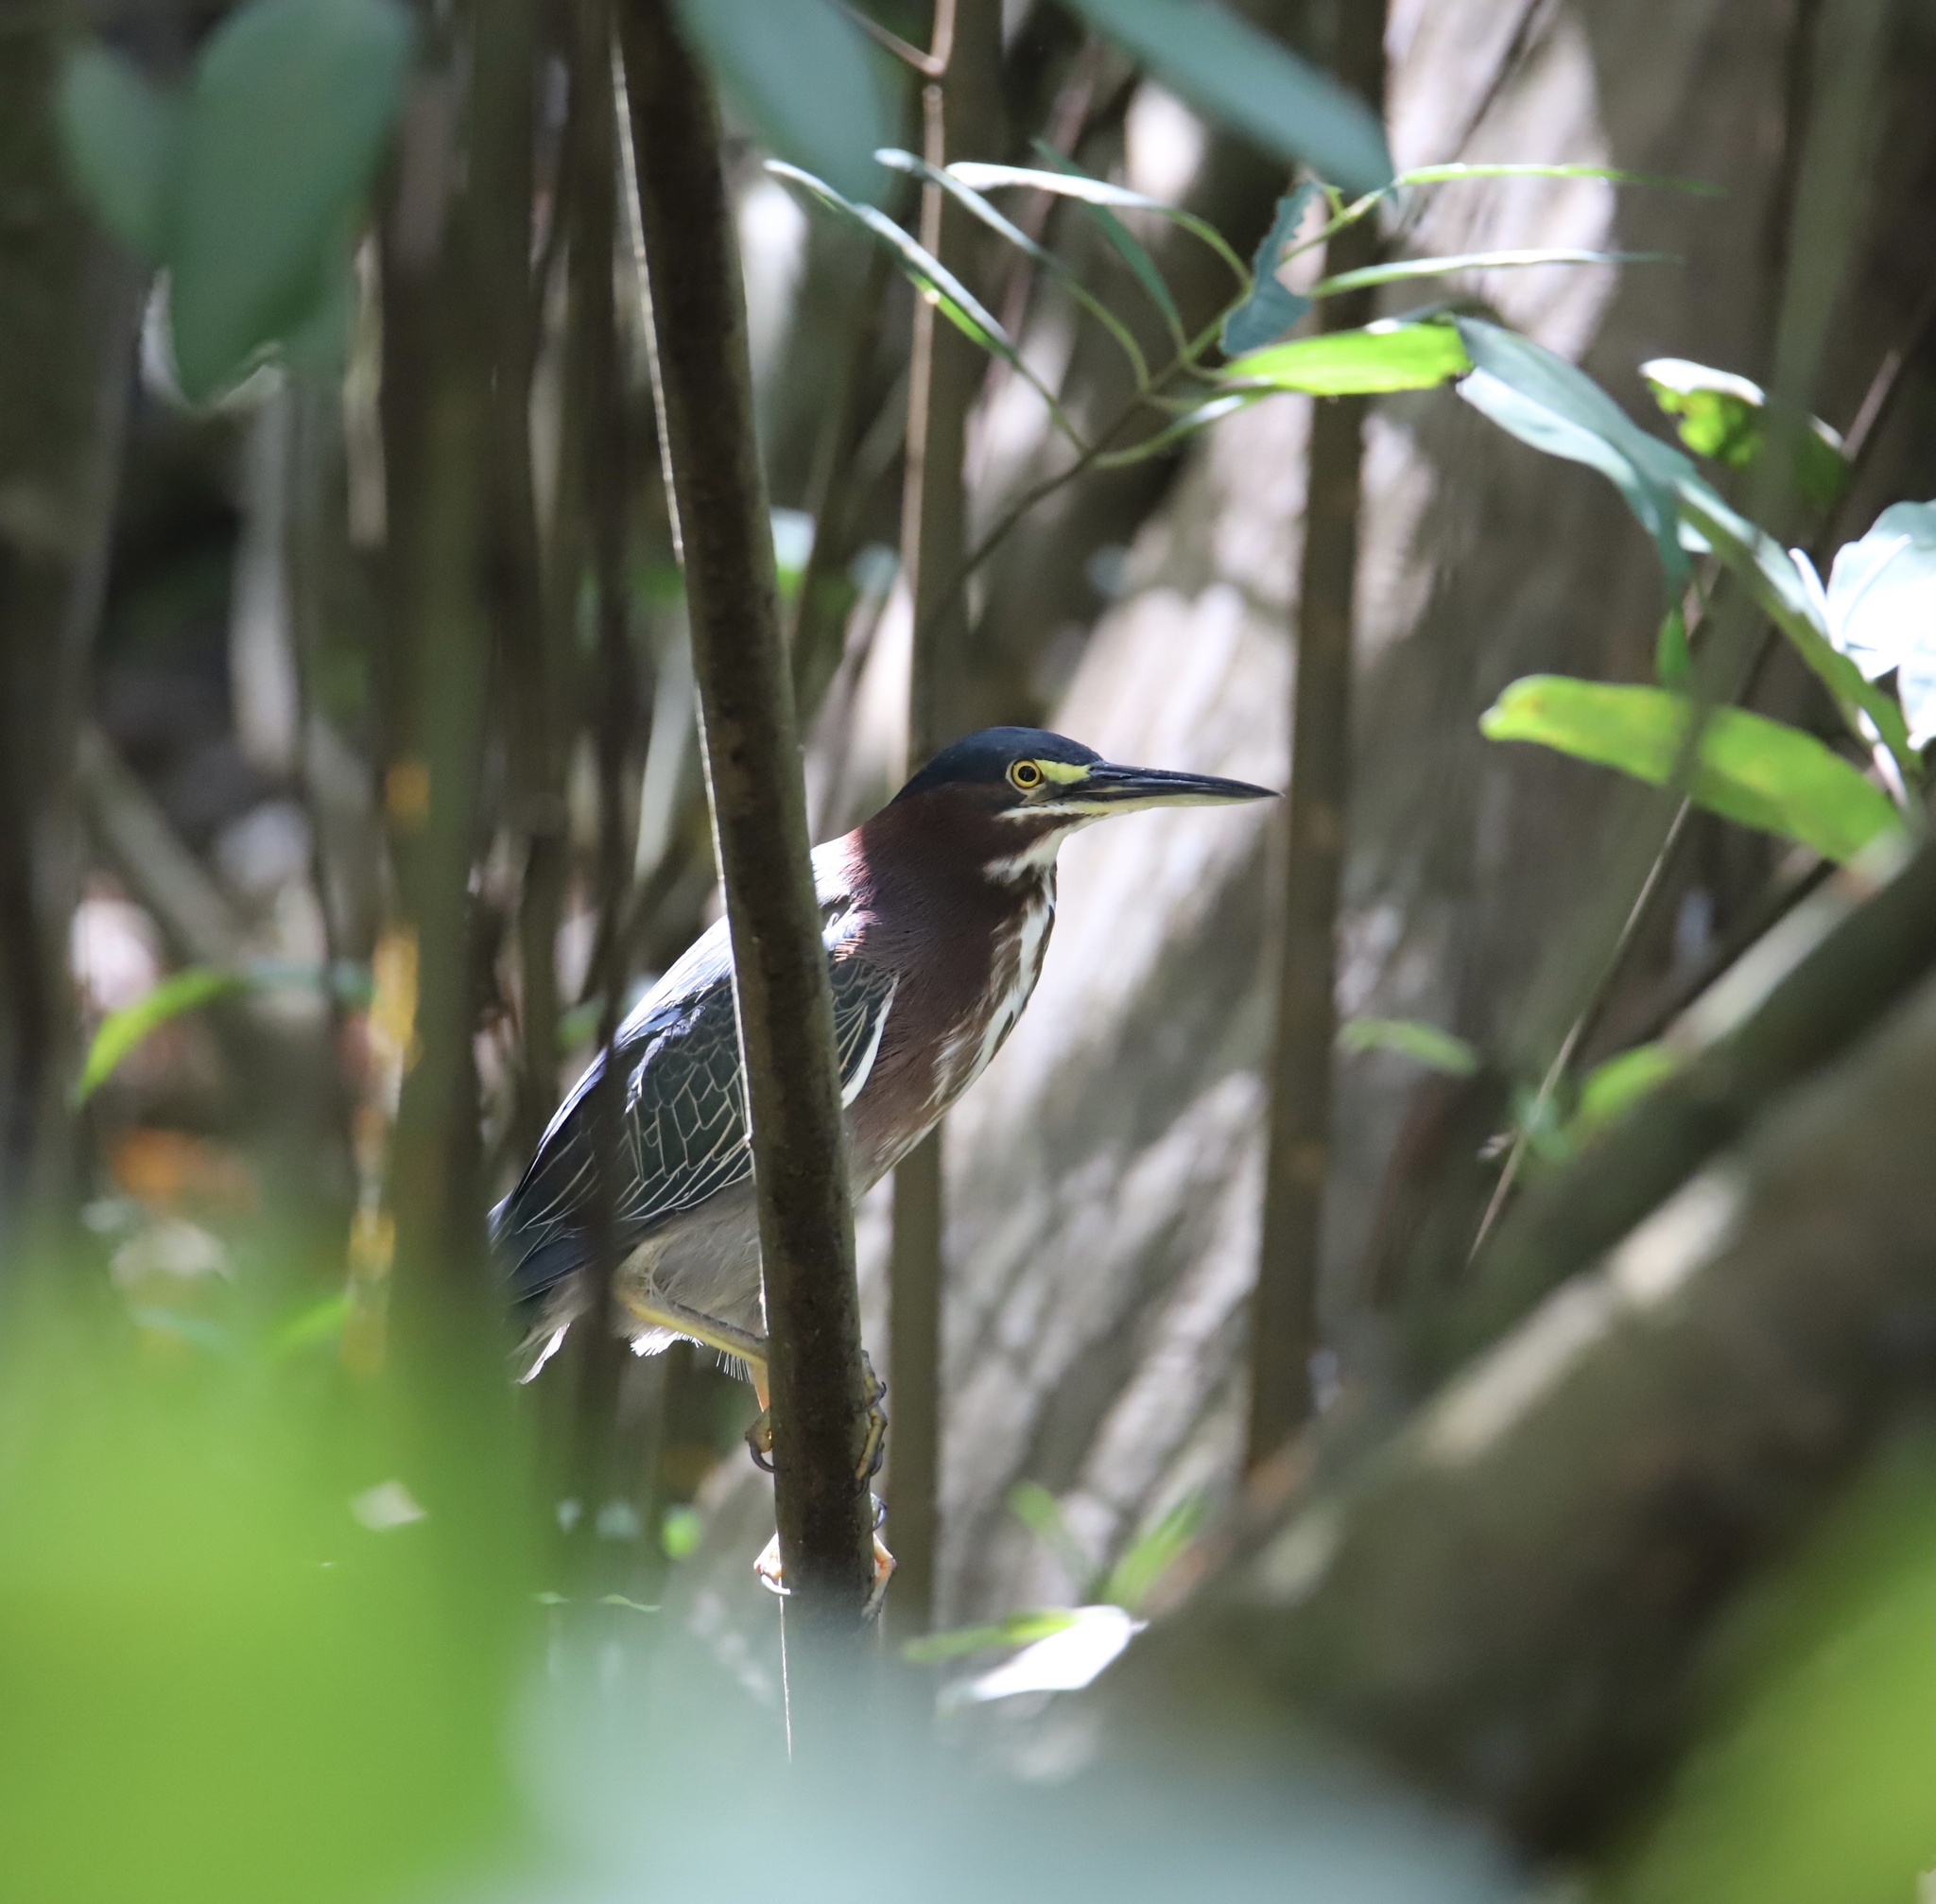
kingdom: Animalia
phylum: Chordata
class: Aves
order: Pelecaniformes
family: Ardeidae
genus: Butorides
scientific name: Butorides virescens
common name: Green heron
